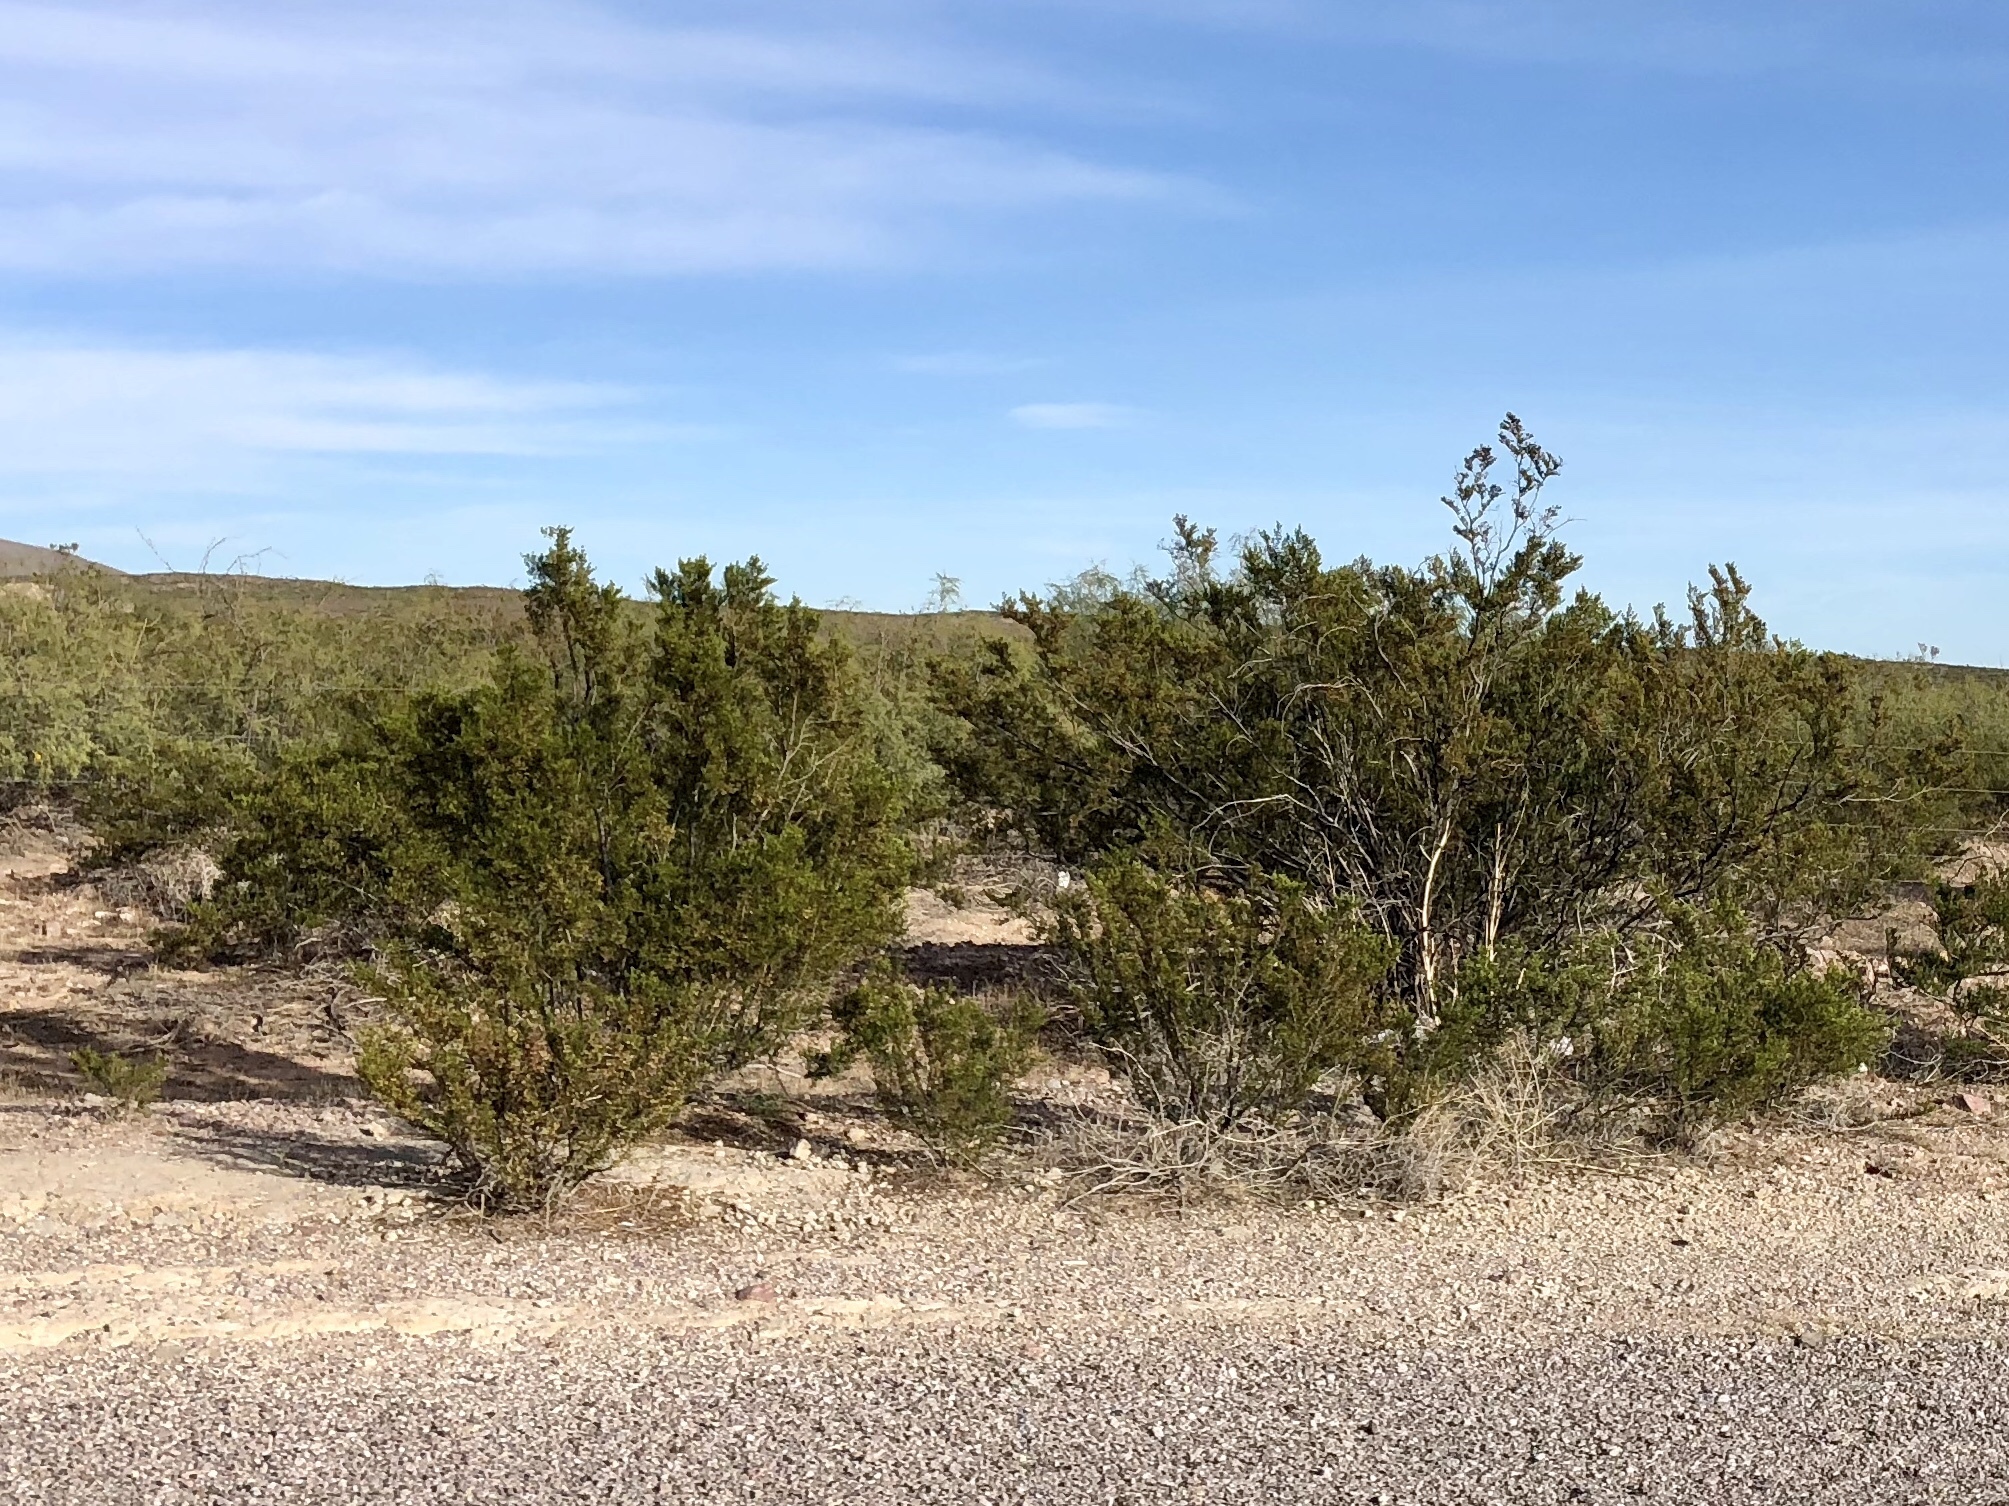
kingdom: Plantae
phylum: Tracheophyta
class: Magnoliopsida
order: Zygophyllales
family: Zygophyllaceae
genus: Larrea
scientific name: Larrea tridentata
